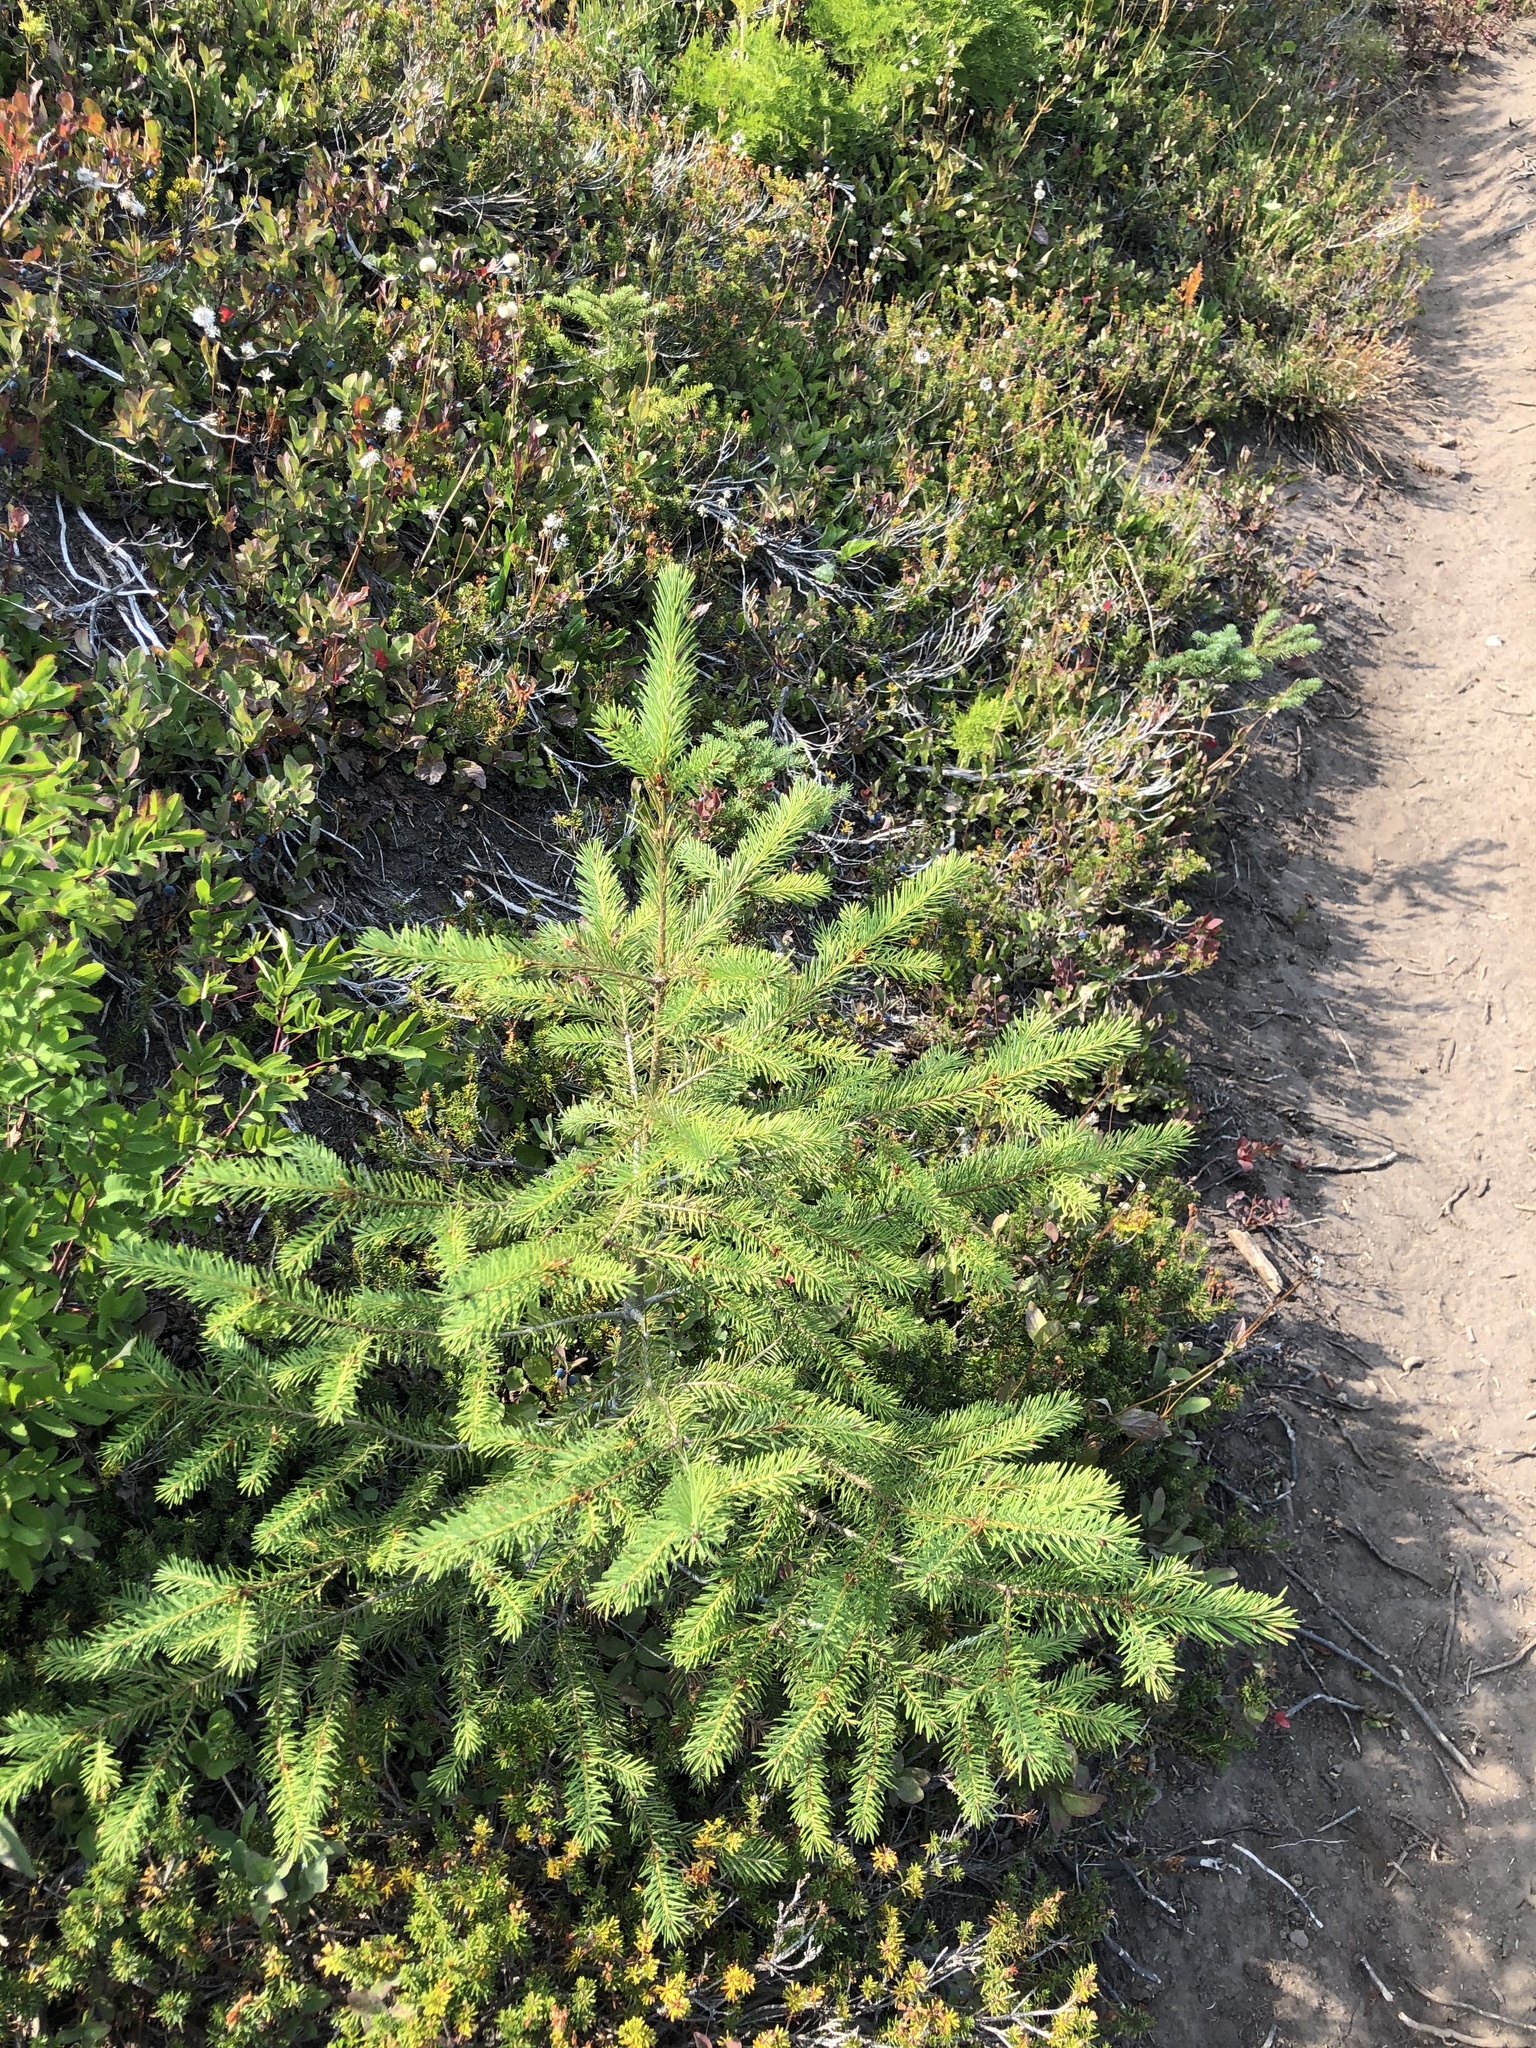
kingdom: Plantae
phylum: Tracheophyta
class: Pinopsida
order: Pinales
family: Pinaceae
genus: Pseudotsuga
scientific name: Pseudotsuga menziesii
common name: Douglas fir
